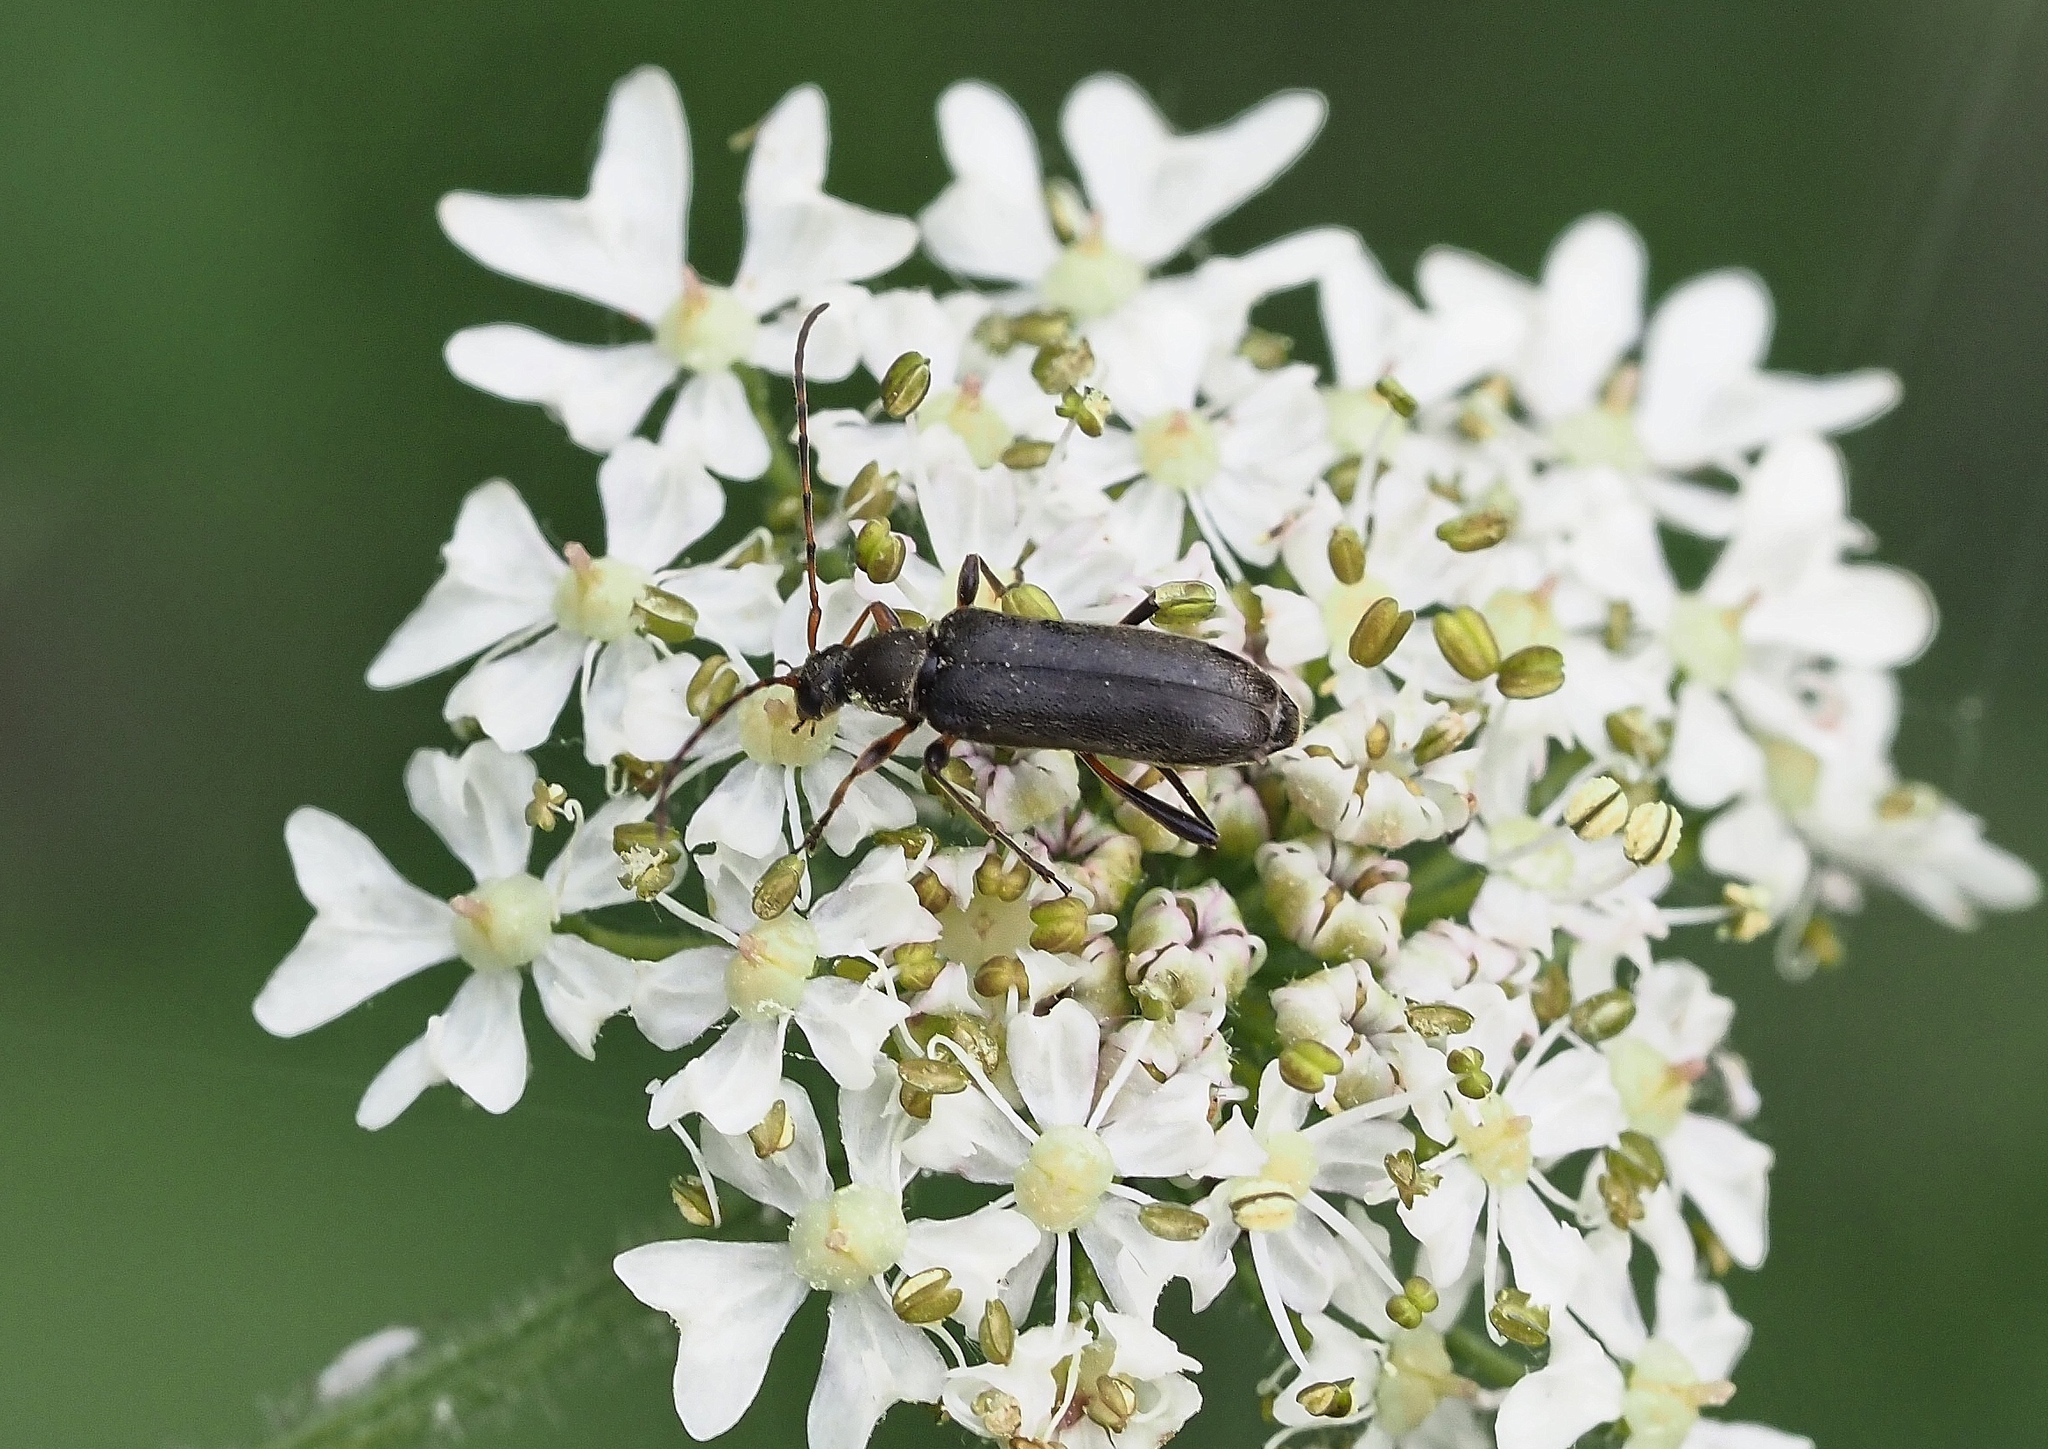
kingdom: Animalia
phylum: Arthropoda
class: Insecta
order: Coleoptera
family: Cerambycidae
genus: Grammoptera
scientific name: Grammoptera ruficornis
